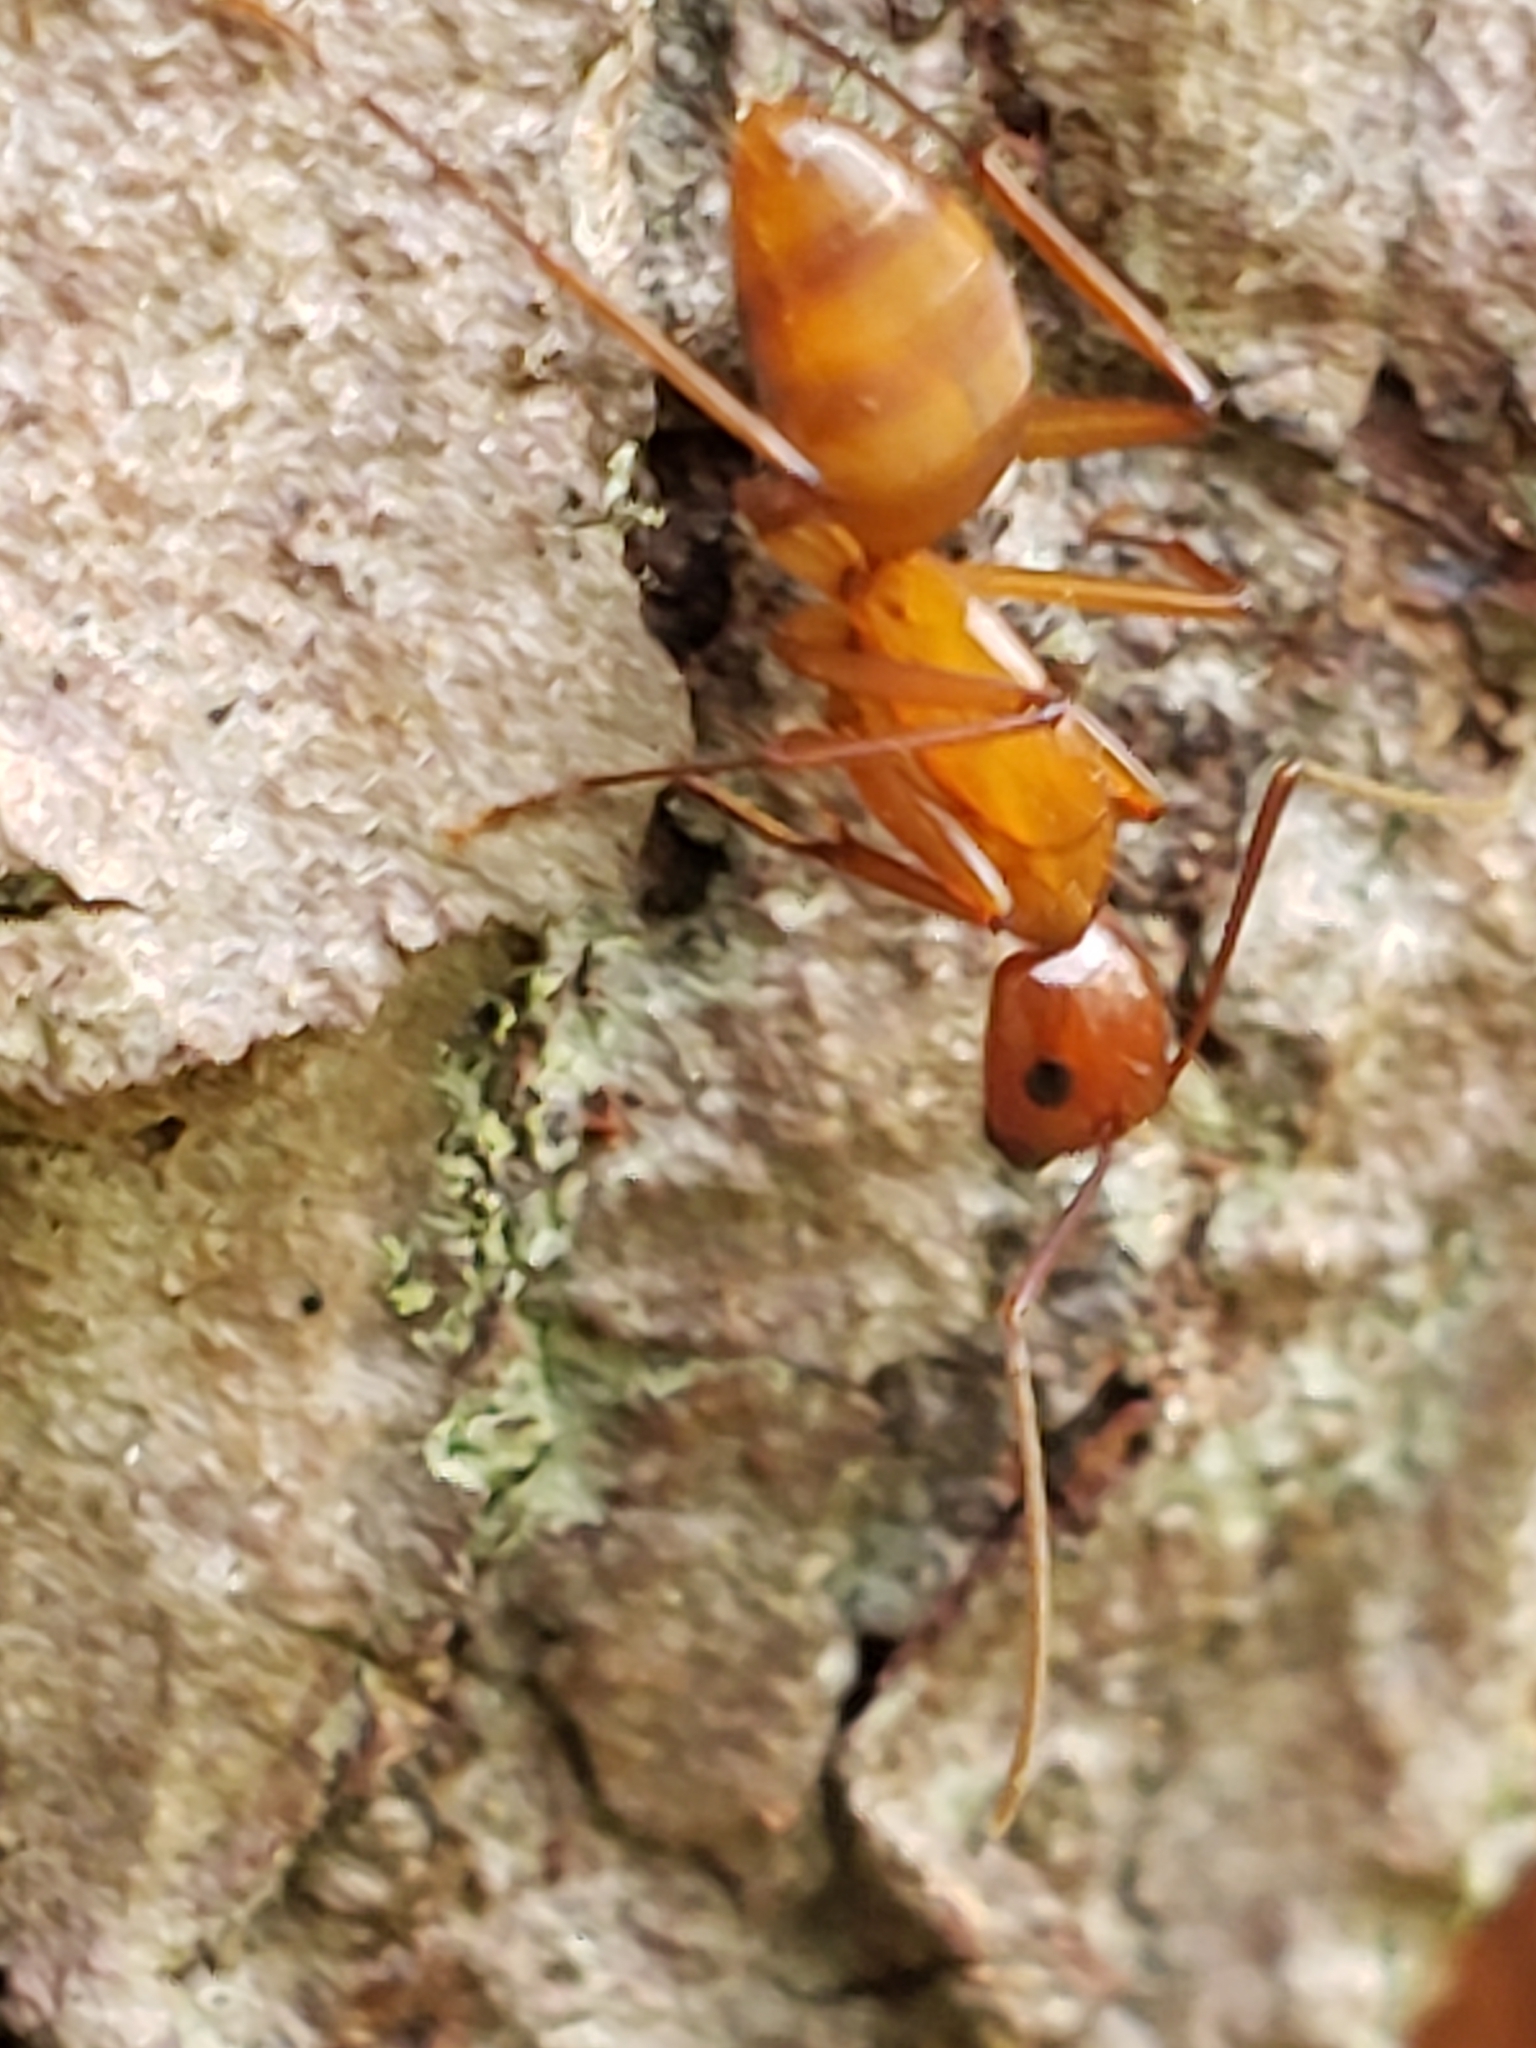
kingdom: Animalia
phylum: Arthropoda
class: Insecta
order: Hymenoptera
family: Formicidae
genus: Camponotus
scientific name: Camponotus castaneus
